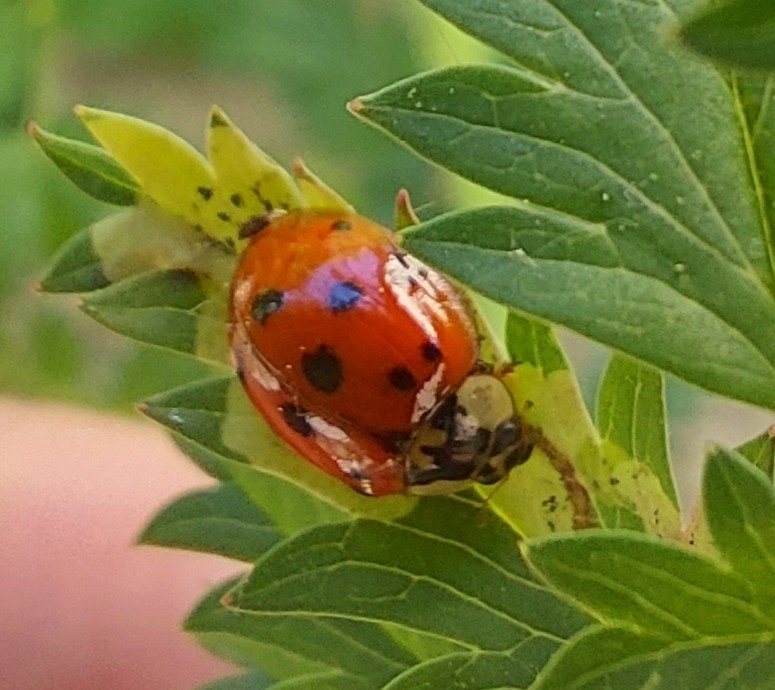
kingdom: Animalia
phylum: Arthropoda
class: Insecta
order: Coleoptera
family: Coccinellidae
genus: Harmonia
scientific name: Harmonia axyridis
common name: Harlequin ladybird
